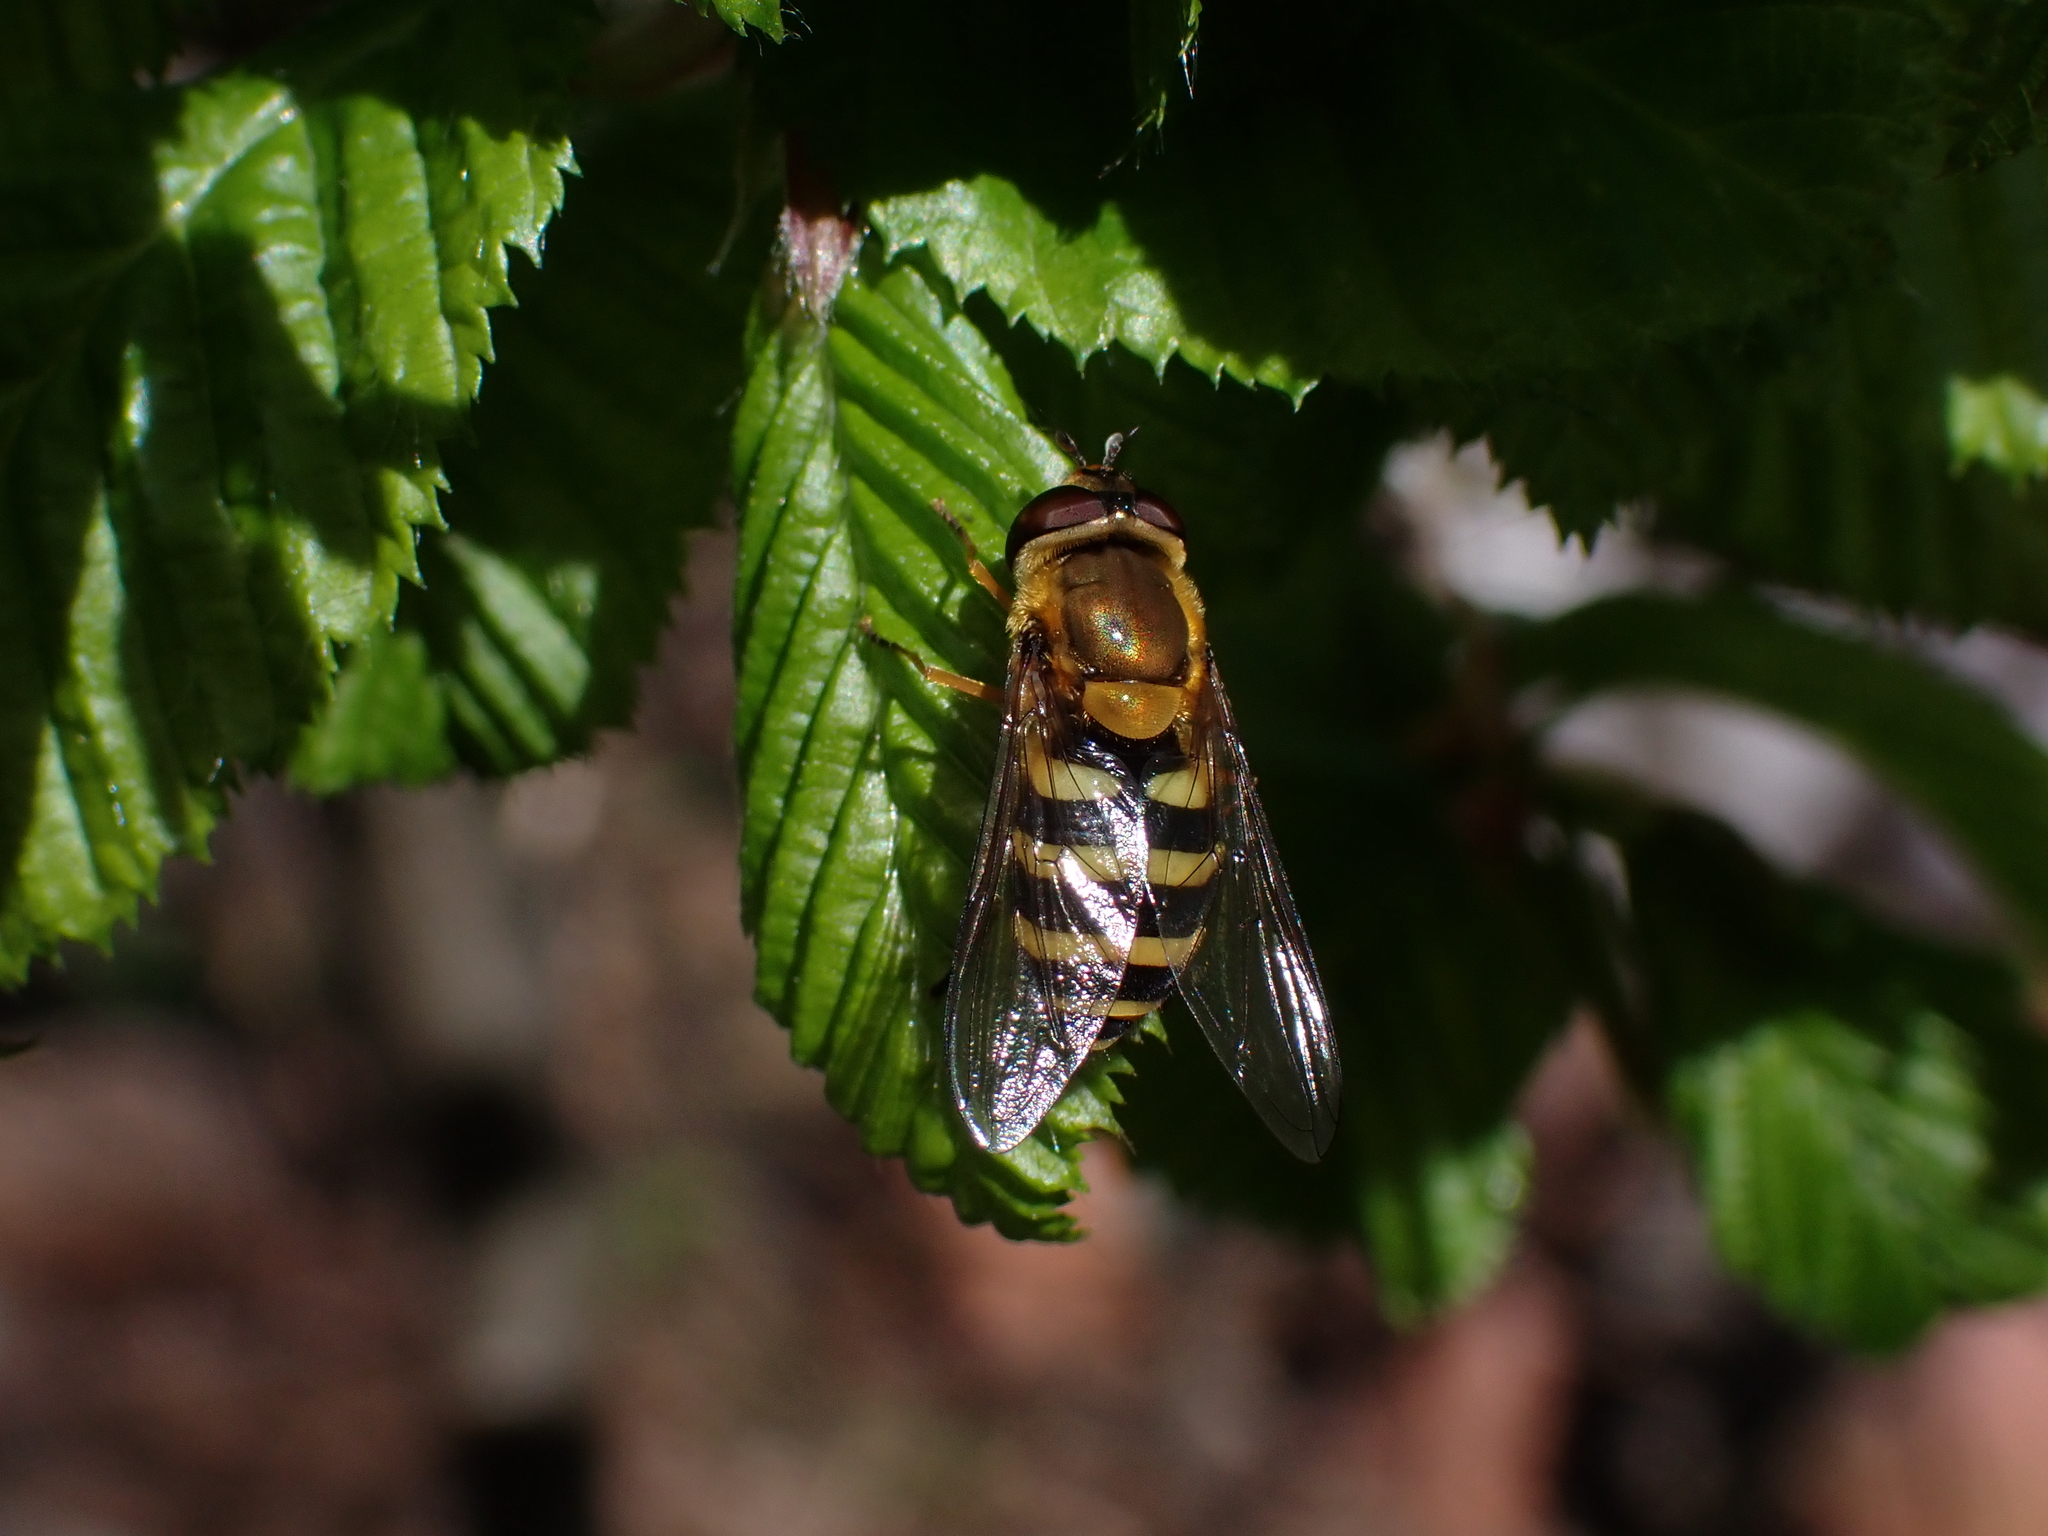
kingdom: Animalia
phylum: Arthropoda
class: Insecta
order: Diptera
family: Syrphidae
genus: Syrphus
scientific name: Syrphus ribesii
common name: Common flower fly
